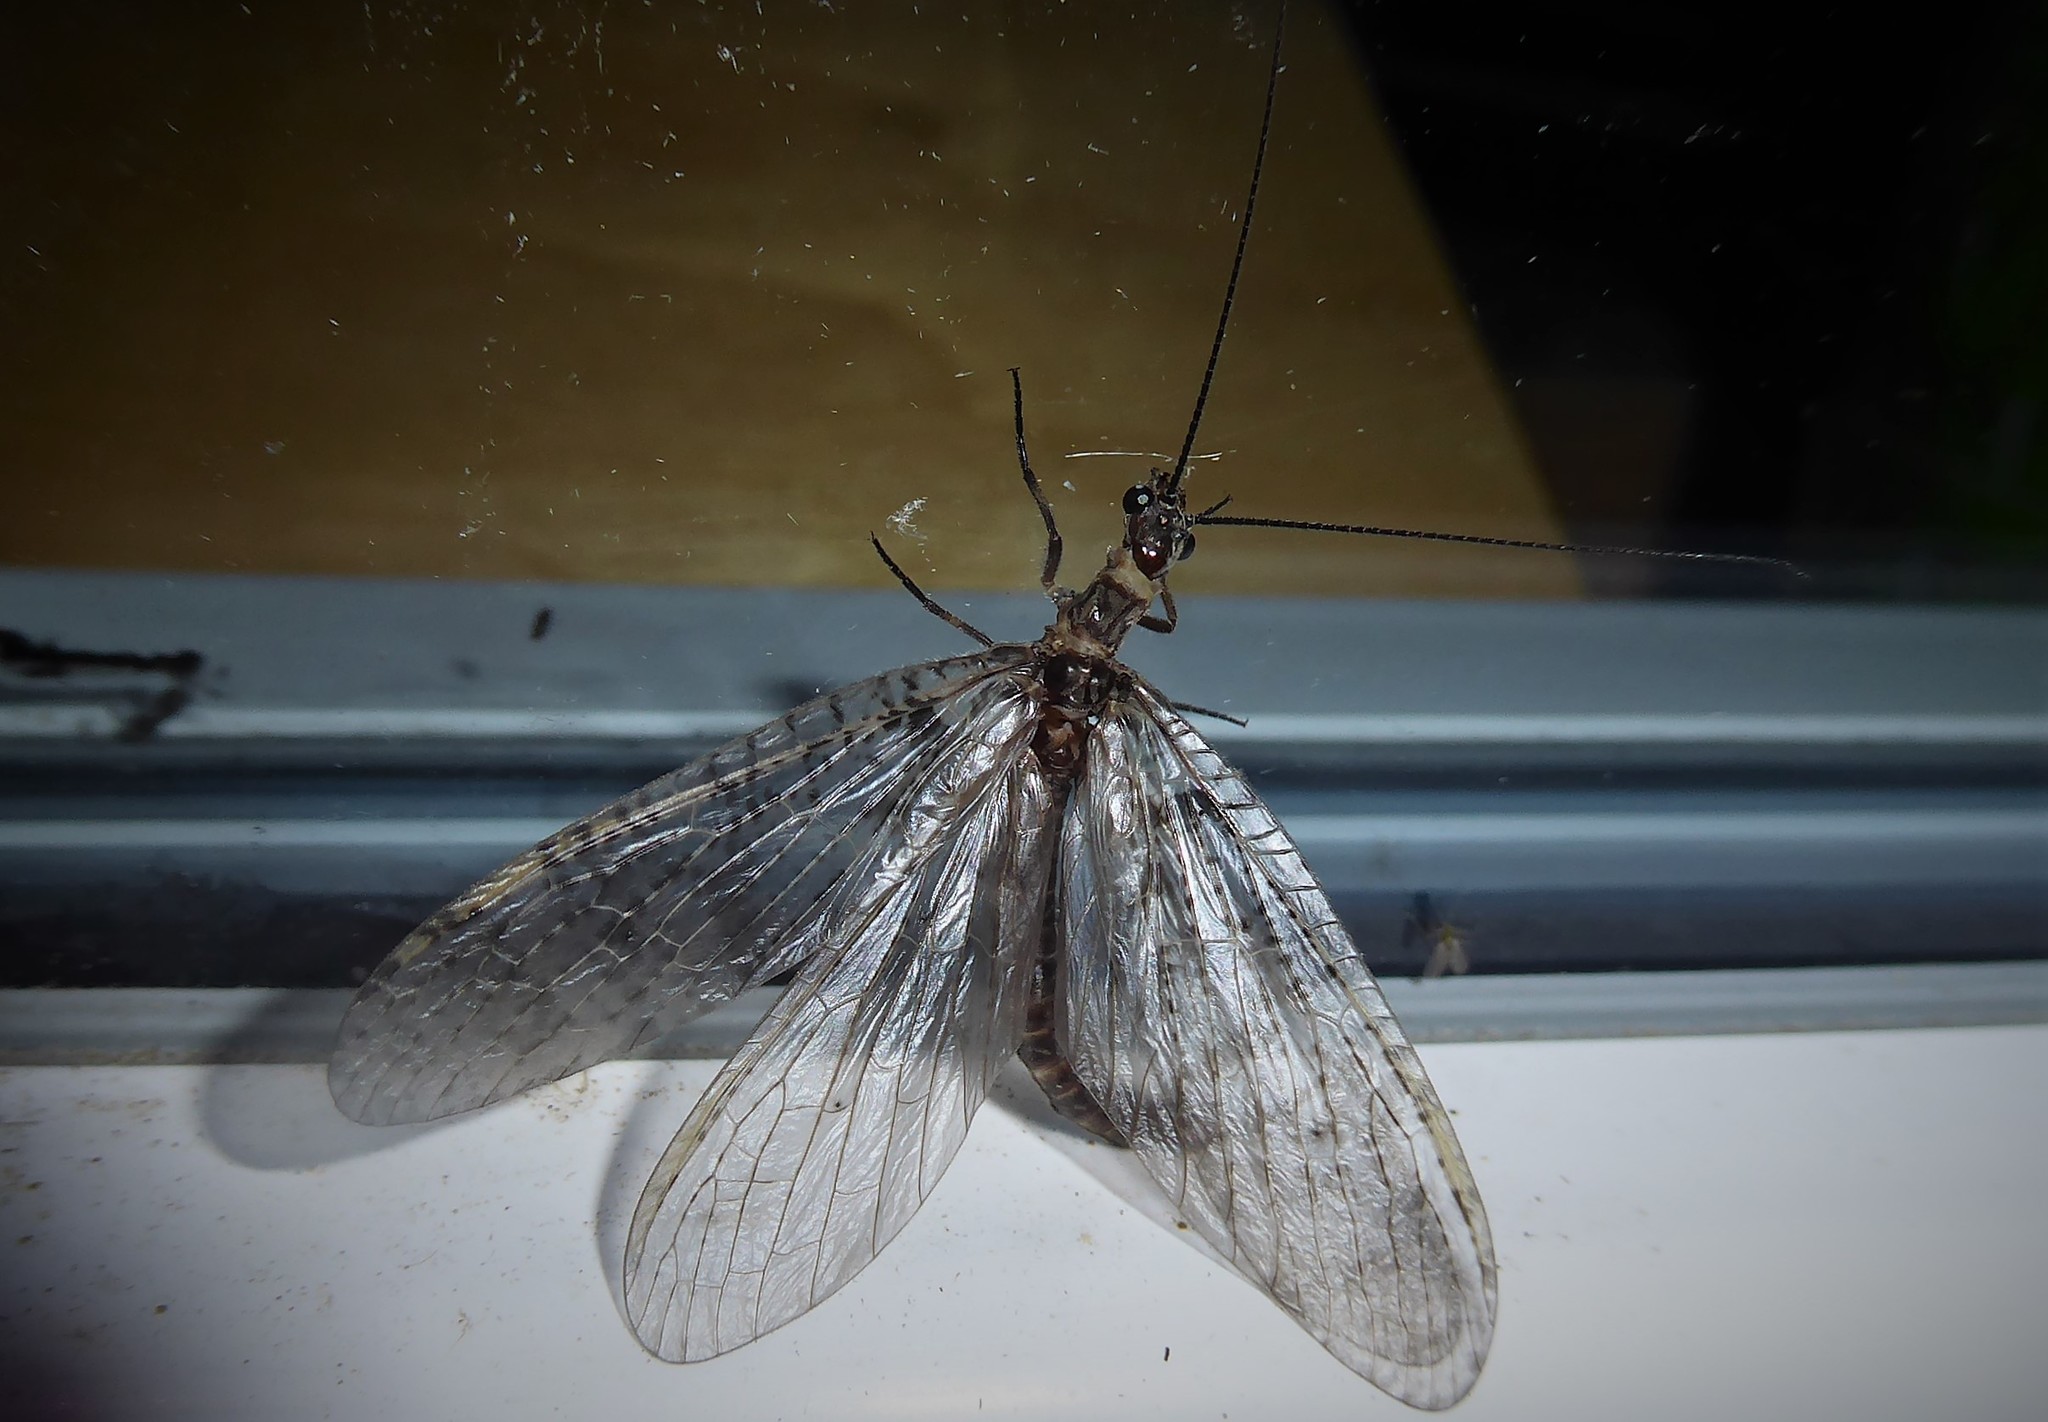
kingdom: Animalia
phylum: Arthropoda
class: Insecta
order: Megaloptera
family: Corydalidae
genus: Archichauliodes
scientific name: Archichauliodes diversus
